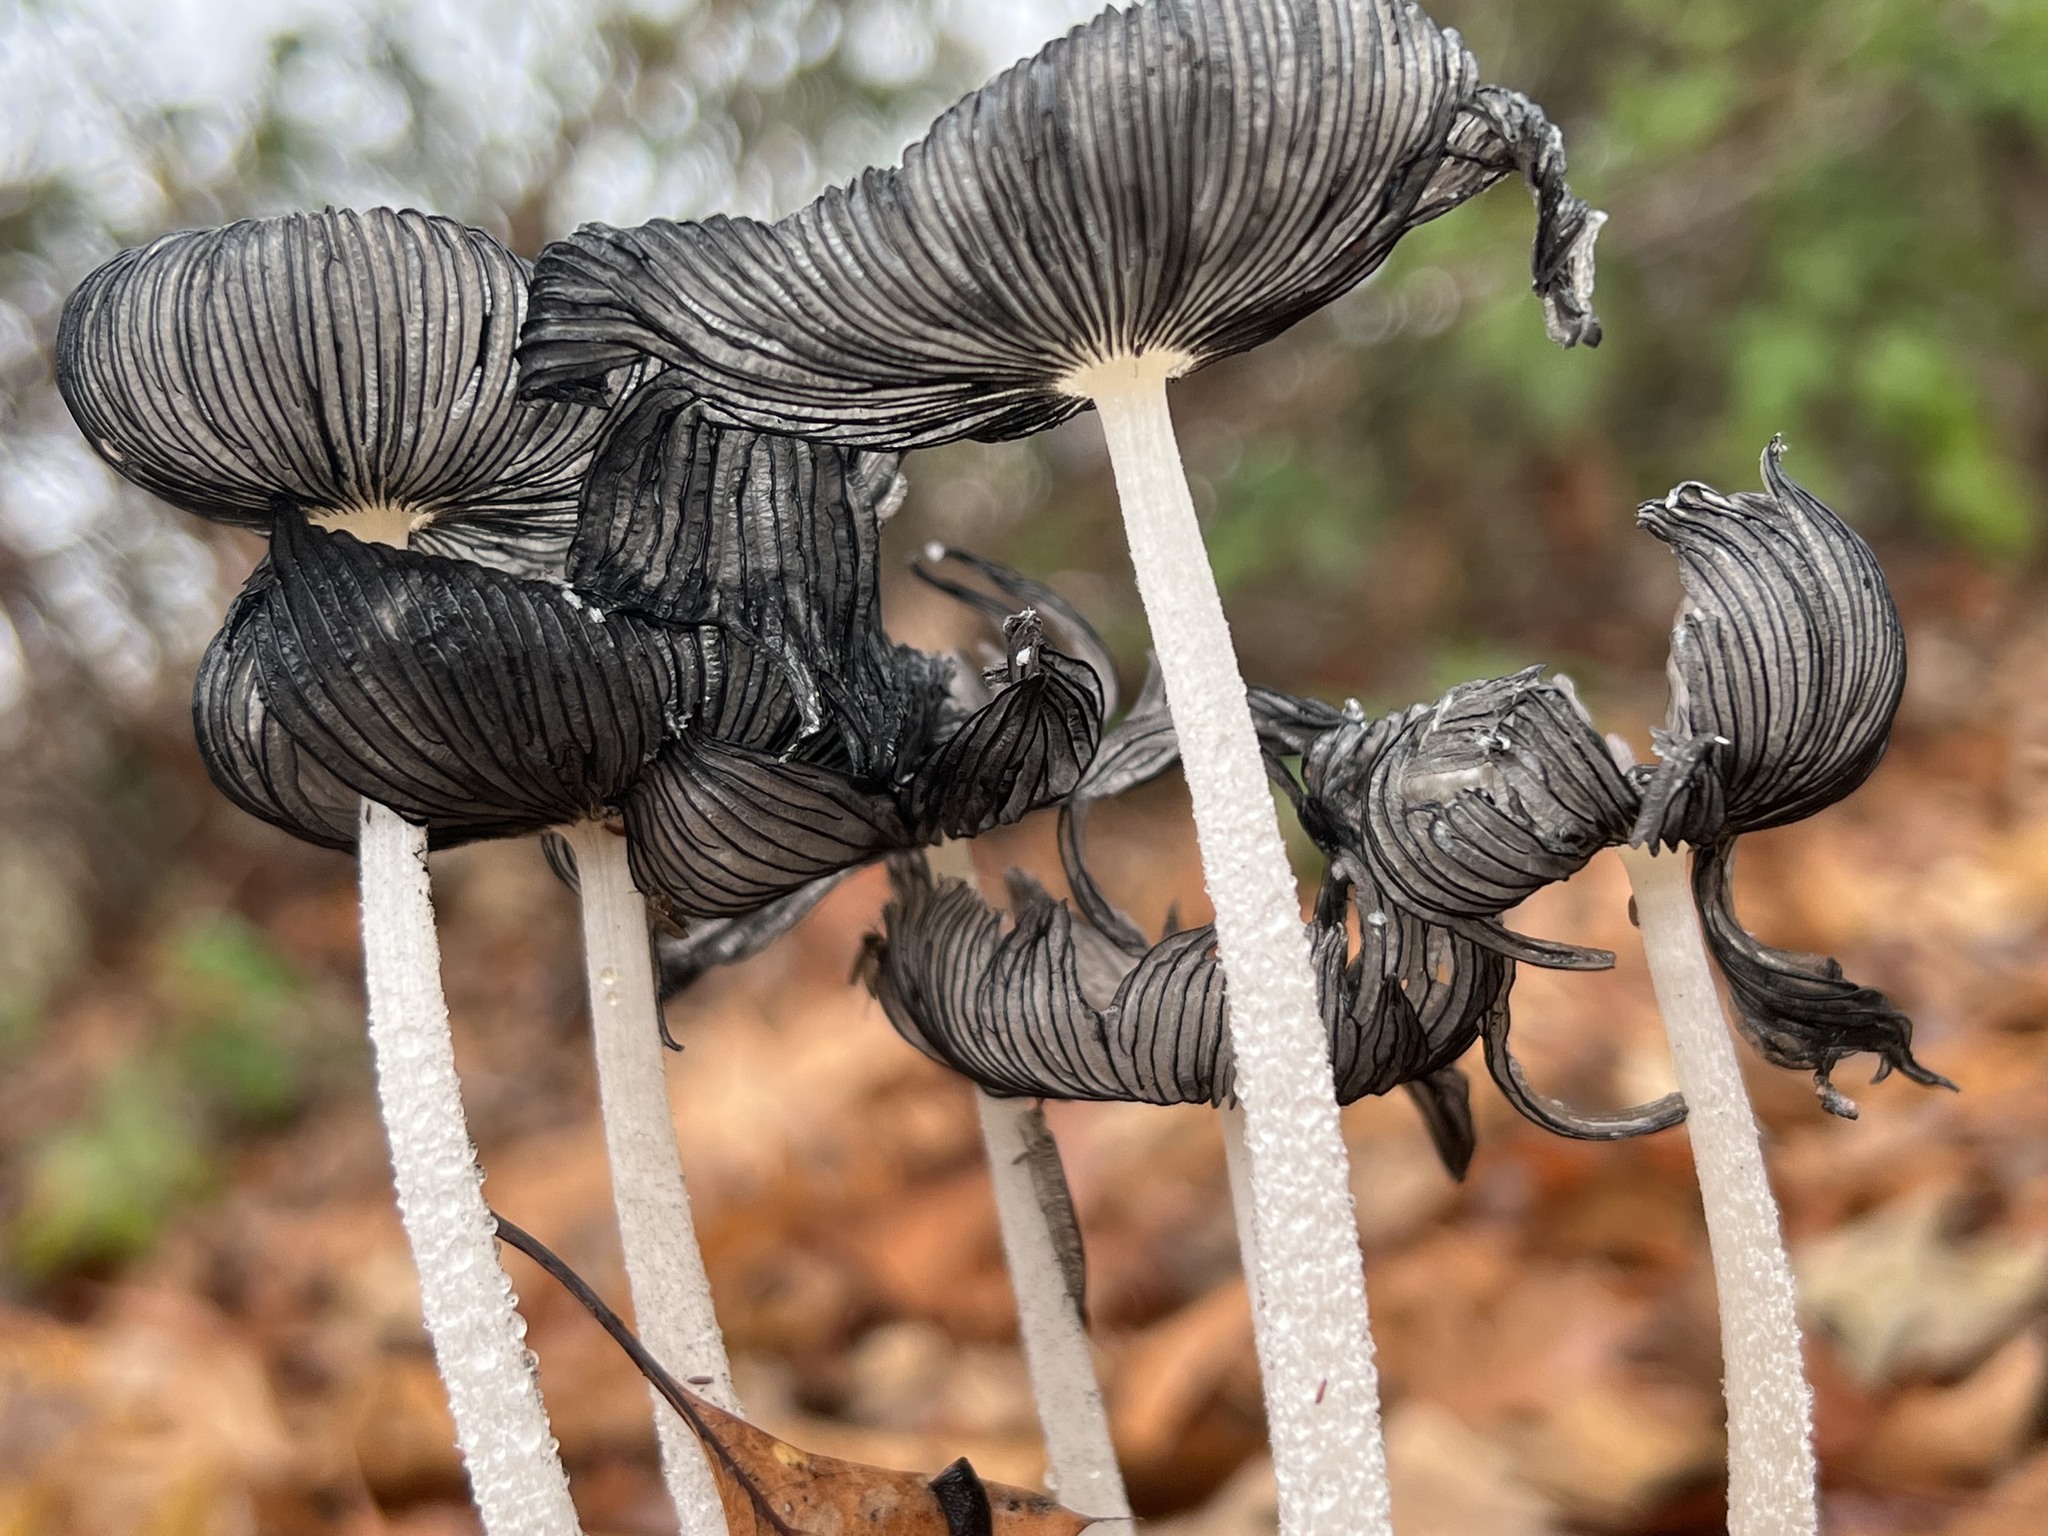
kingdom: Fungi
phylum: Basidiomycota
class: Agaricomycetes
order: Agaricales
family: Psathyrellaceae
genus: Coprinopsis
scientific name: Coprinopsis lagopus
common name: Hare'sfoot inkcap
